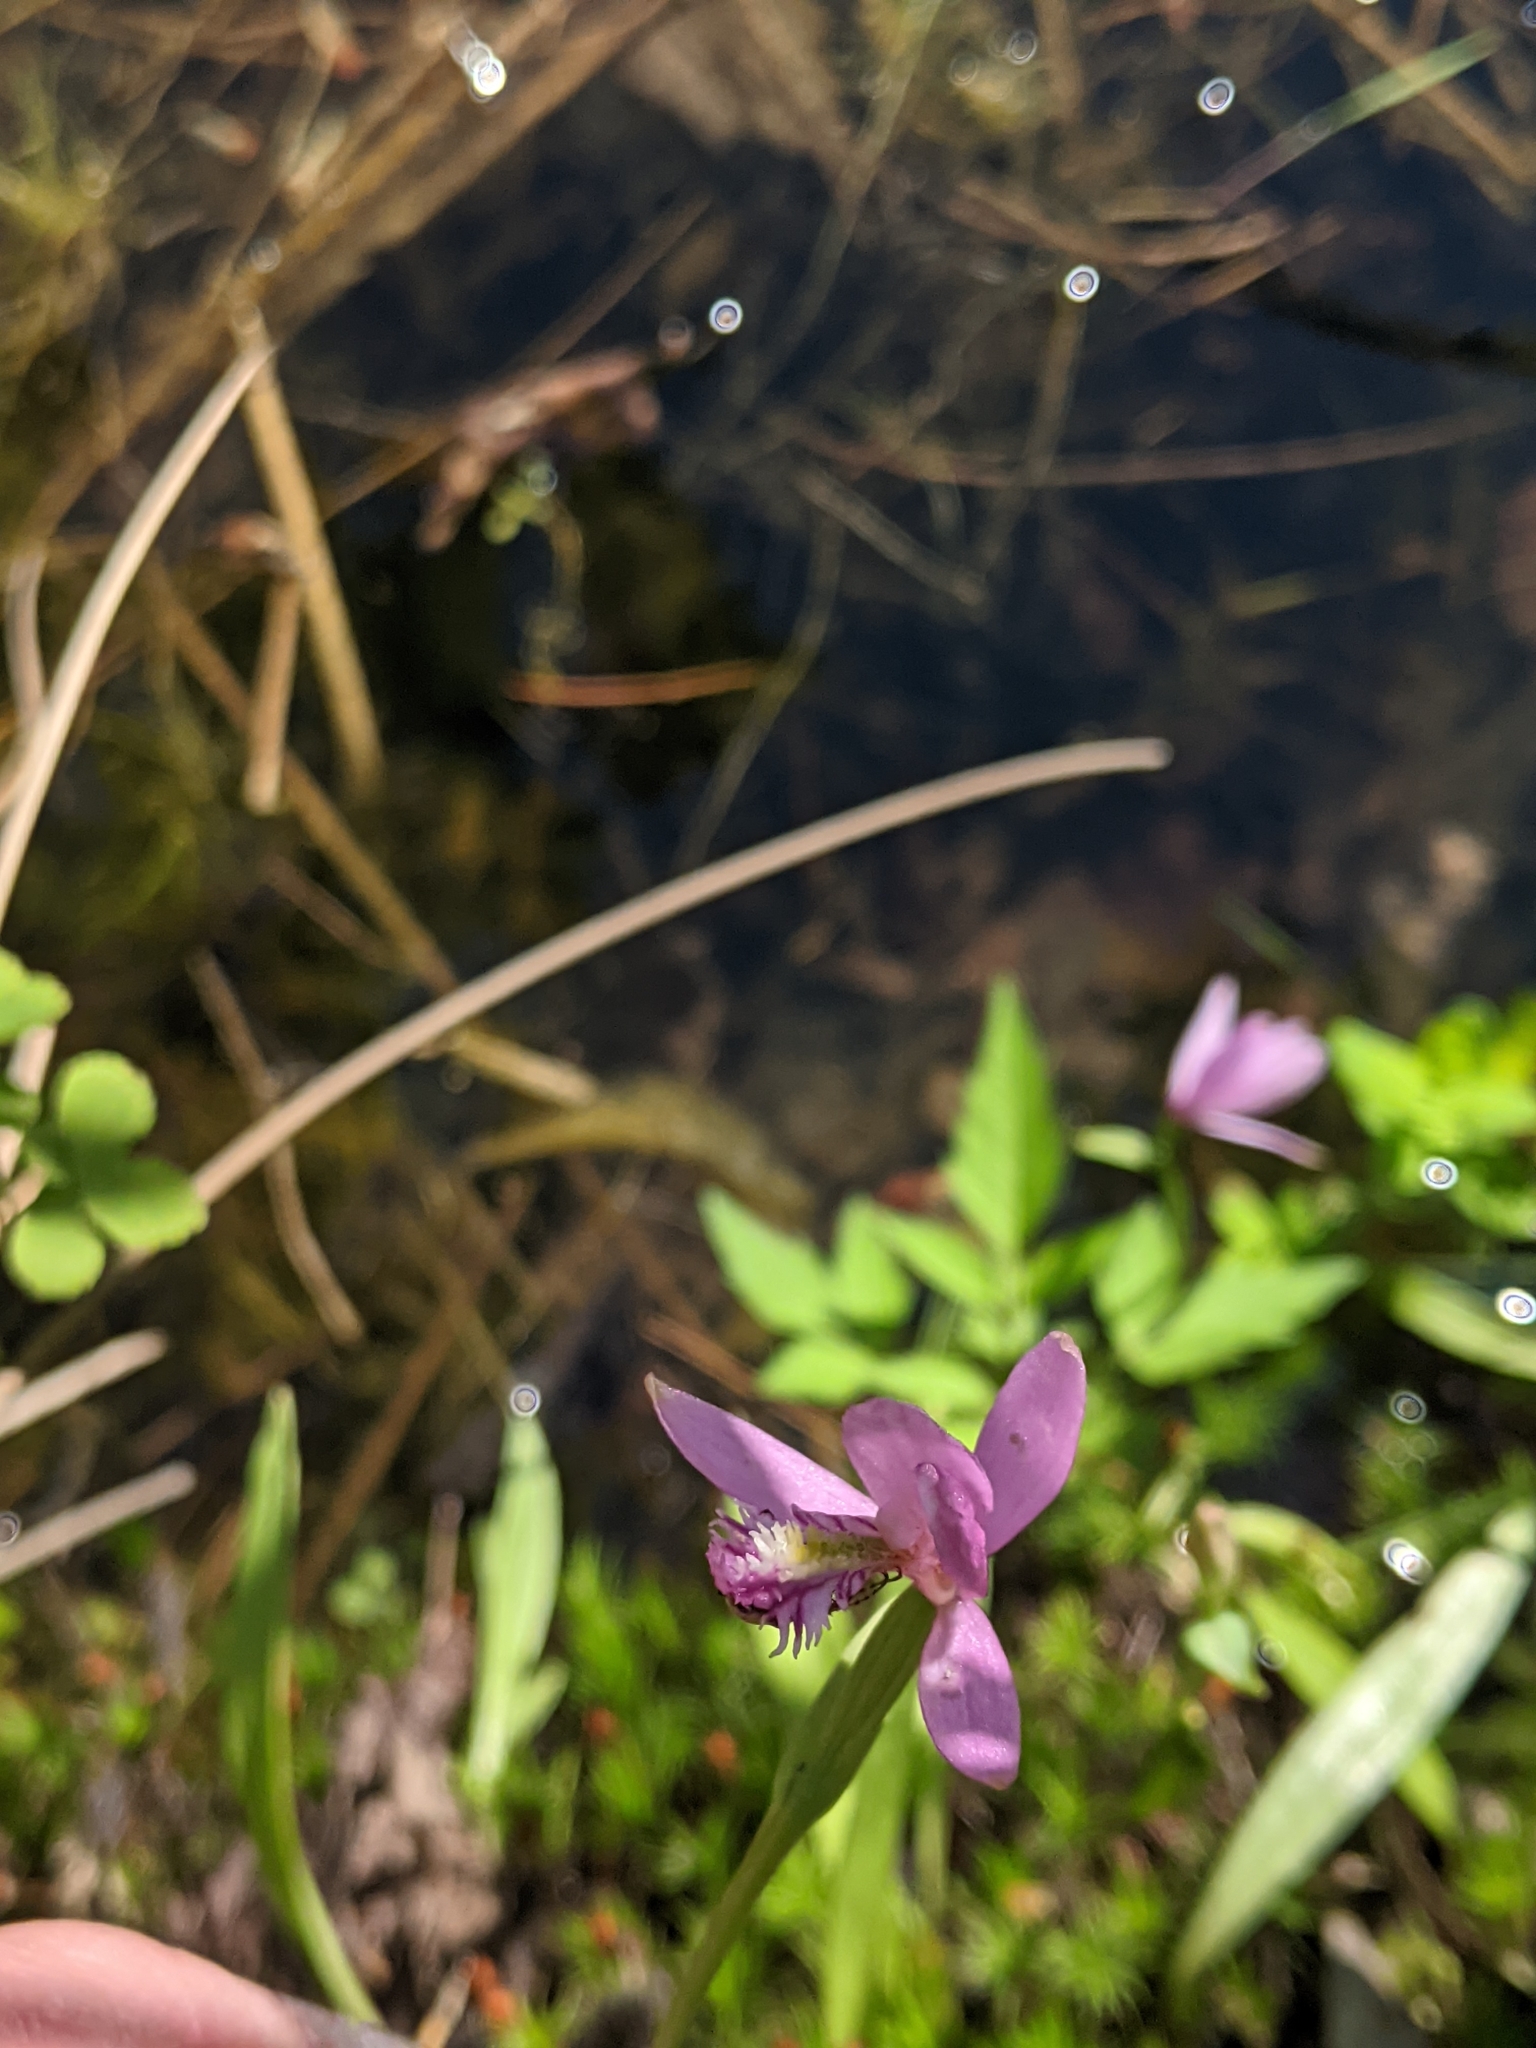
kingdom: Plantae
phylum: Tracheophyta
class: Liliopsida
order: Asparagales
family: Orchidaceae
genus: Pogonia
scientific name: Pogonia ophioglossoides
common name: Rose pogonia
